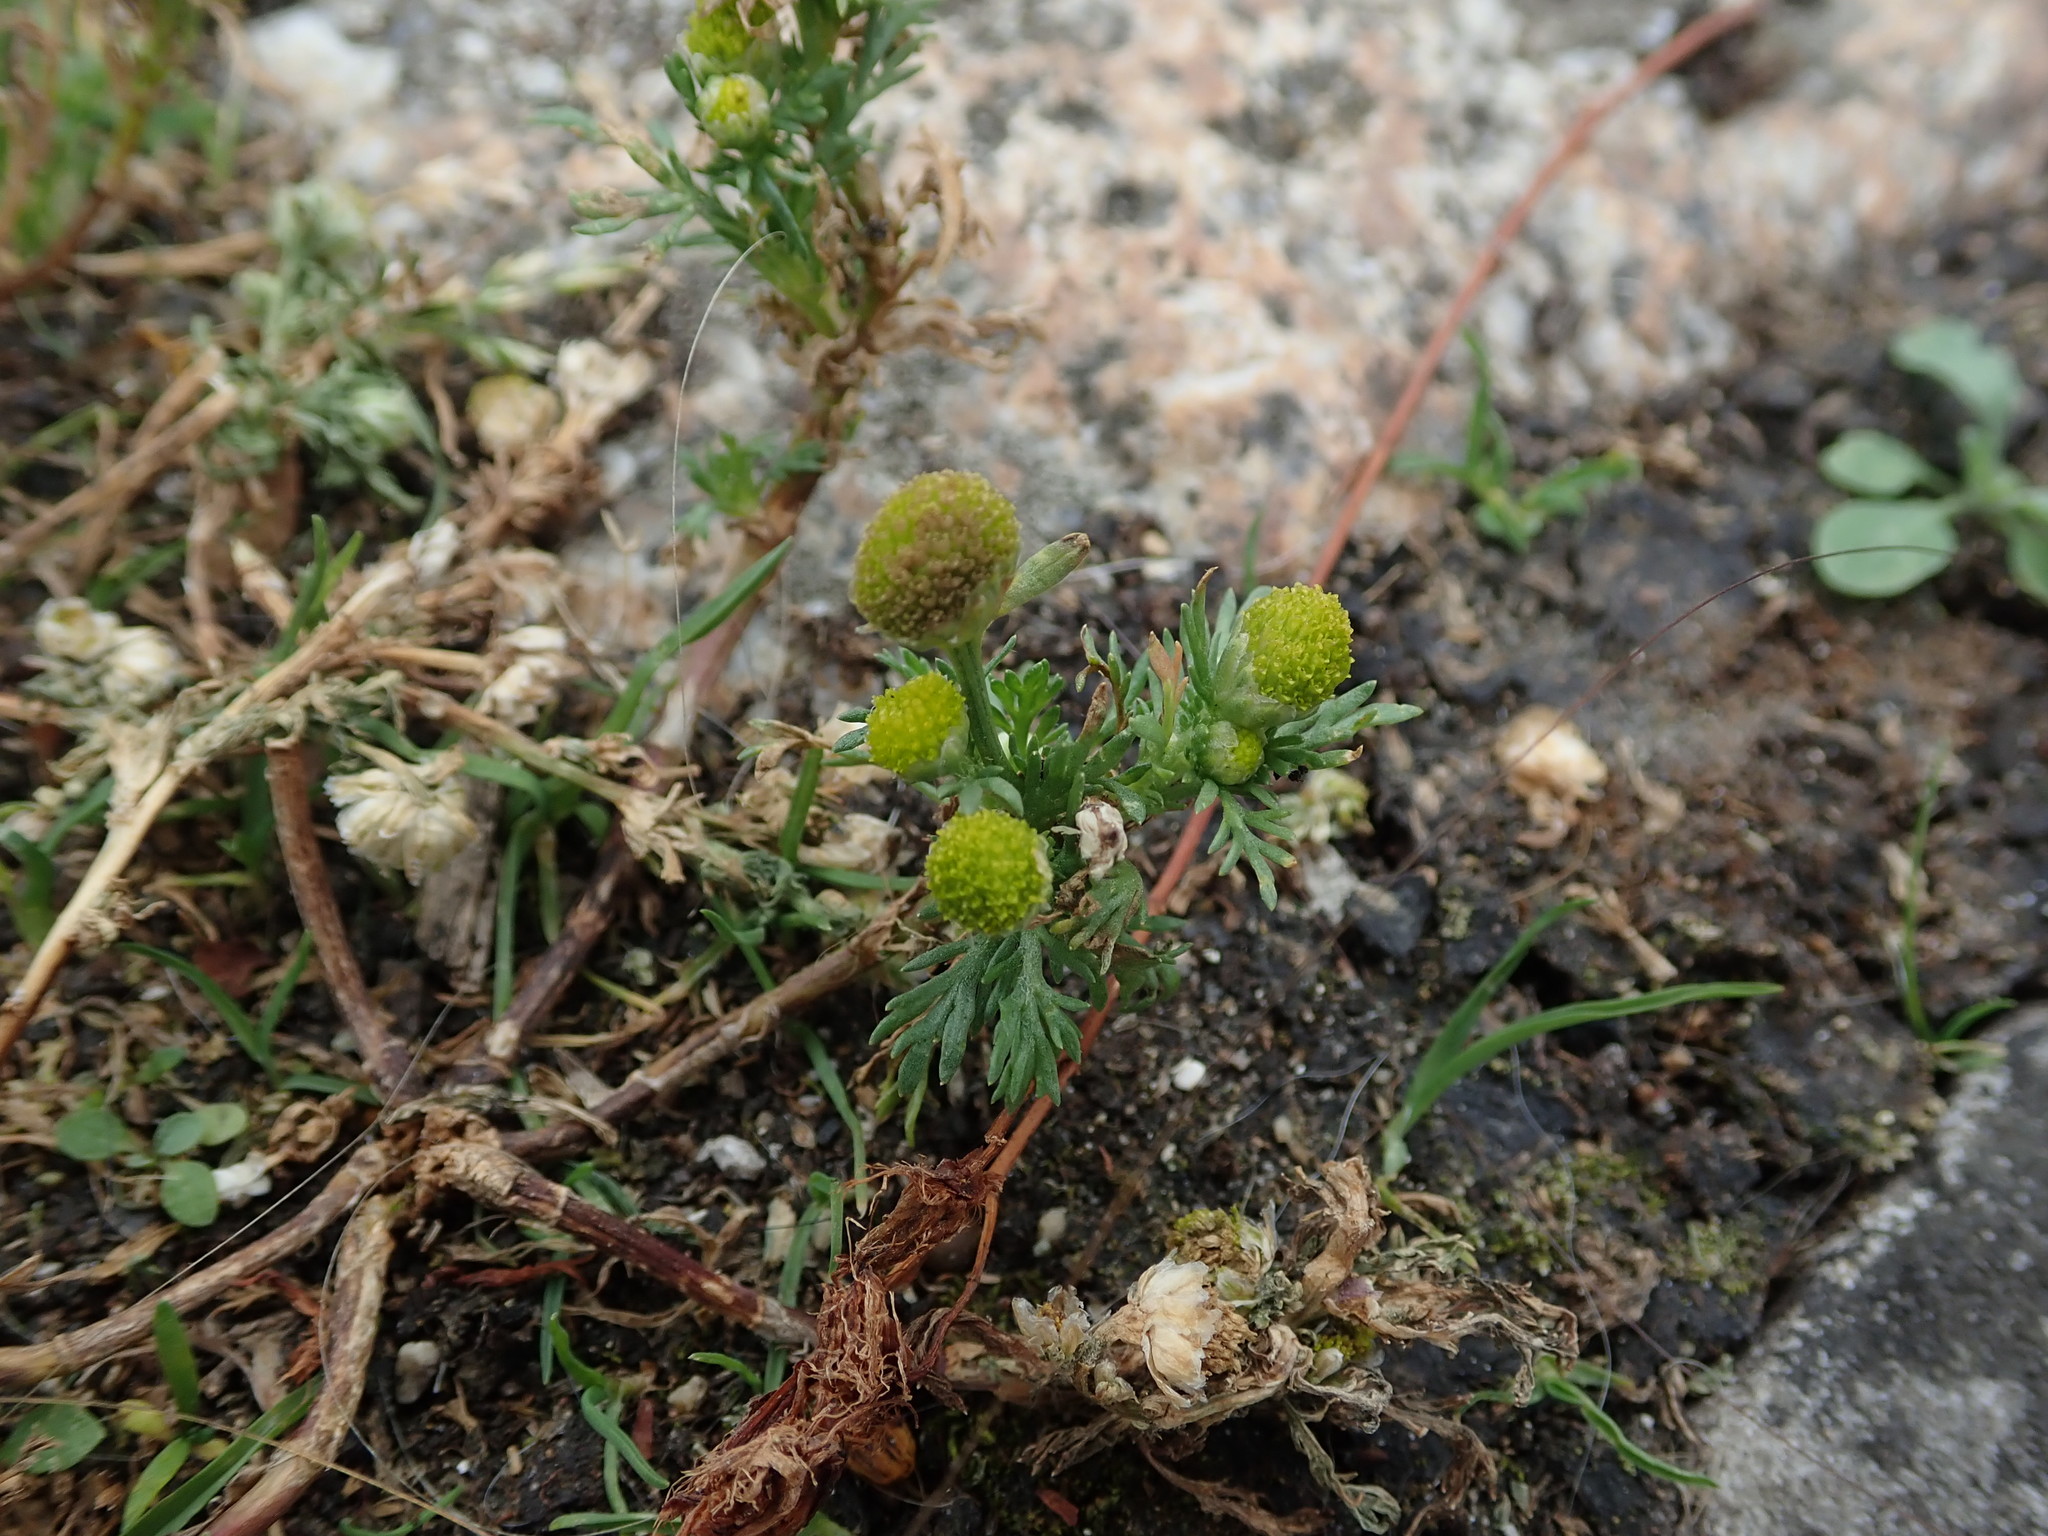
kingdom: Plantae
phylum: Tracheophyta
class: Magnoliopsida
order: Asterales
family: Asteraceae
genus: Matricaria
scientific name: Matricaria discoidea
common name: Disc mayweed
